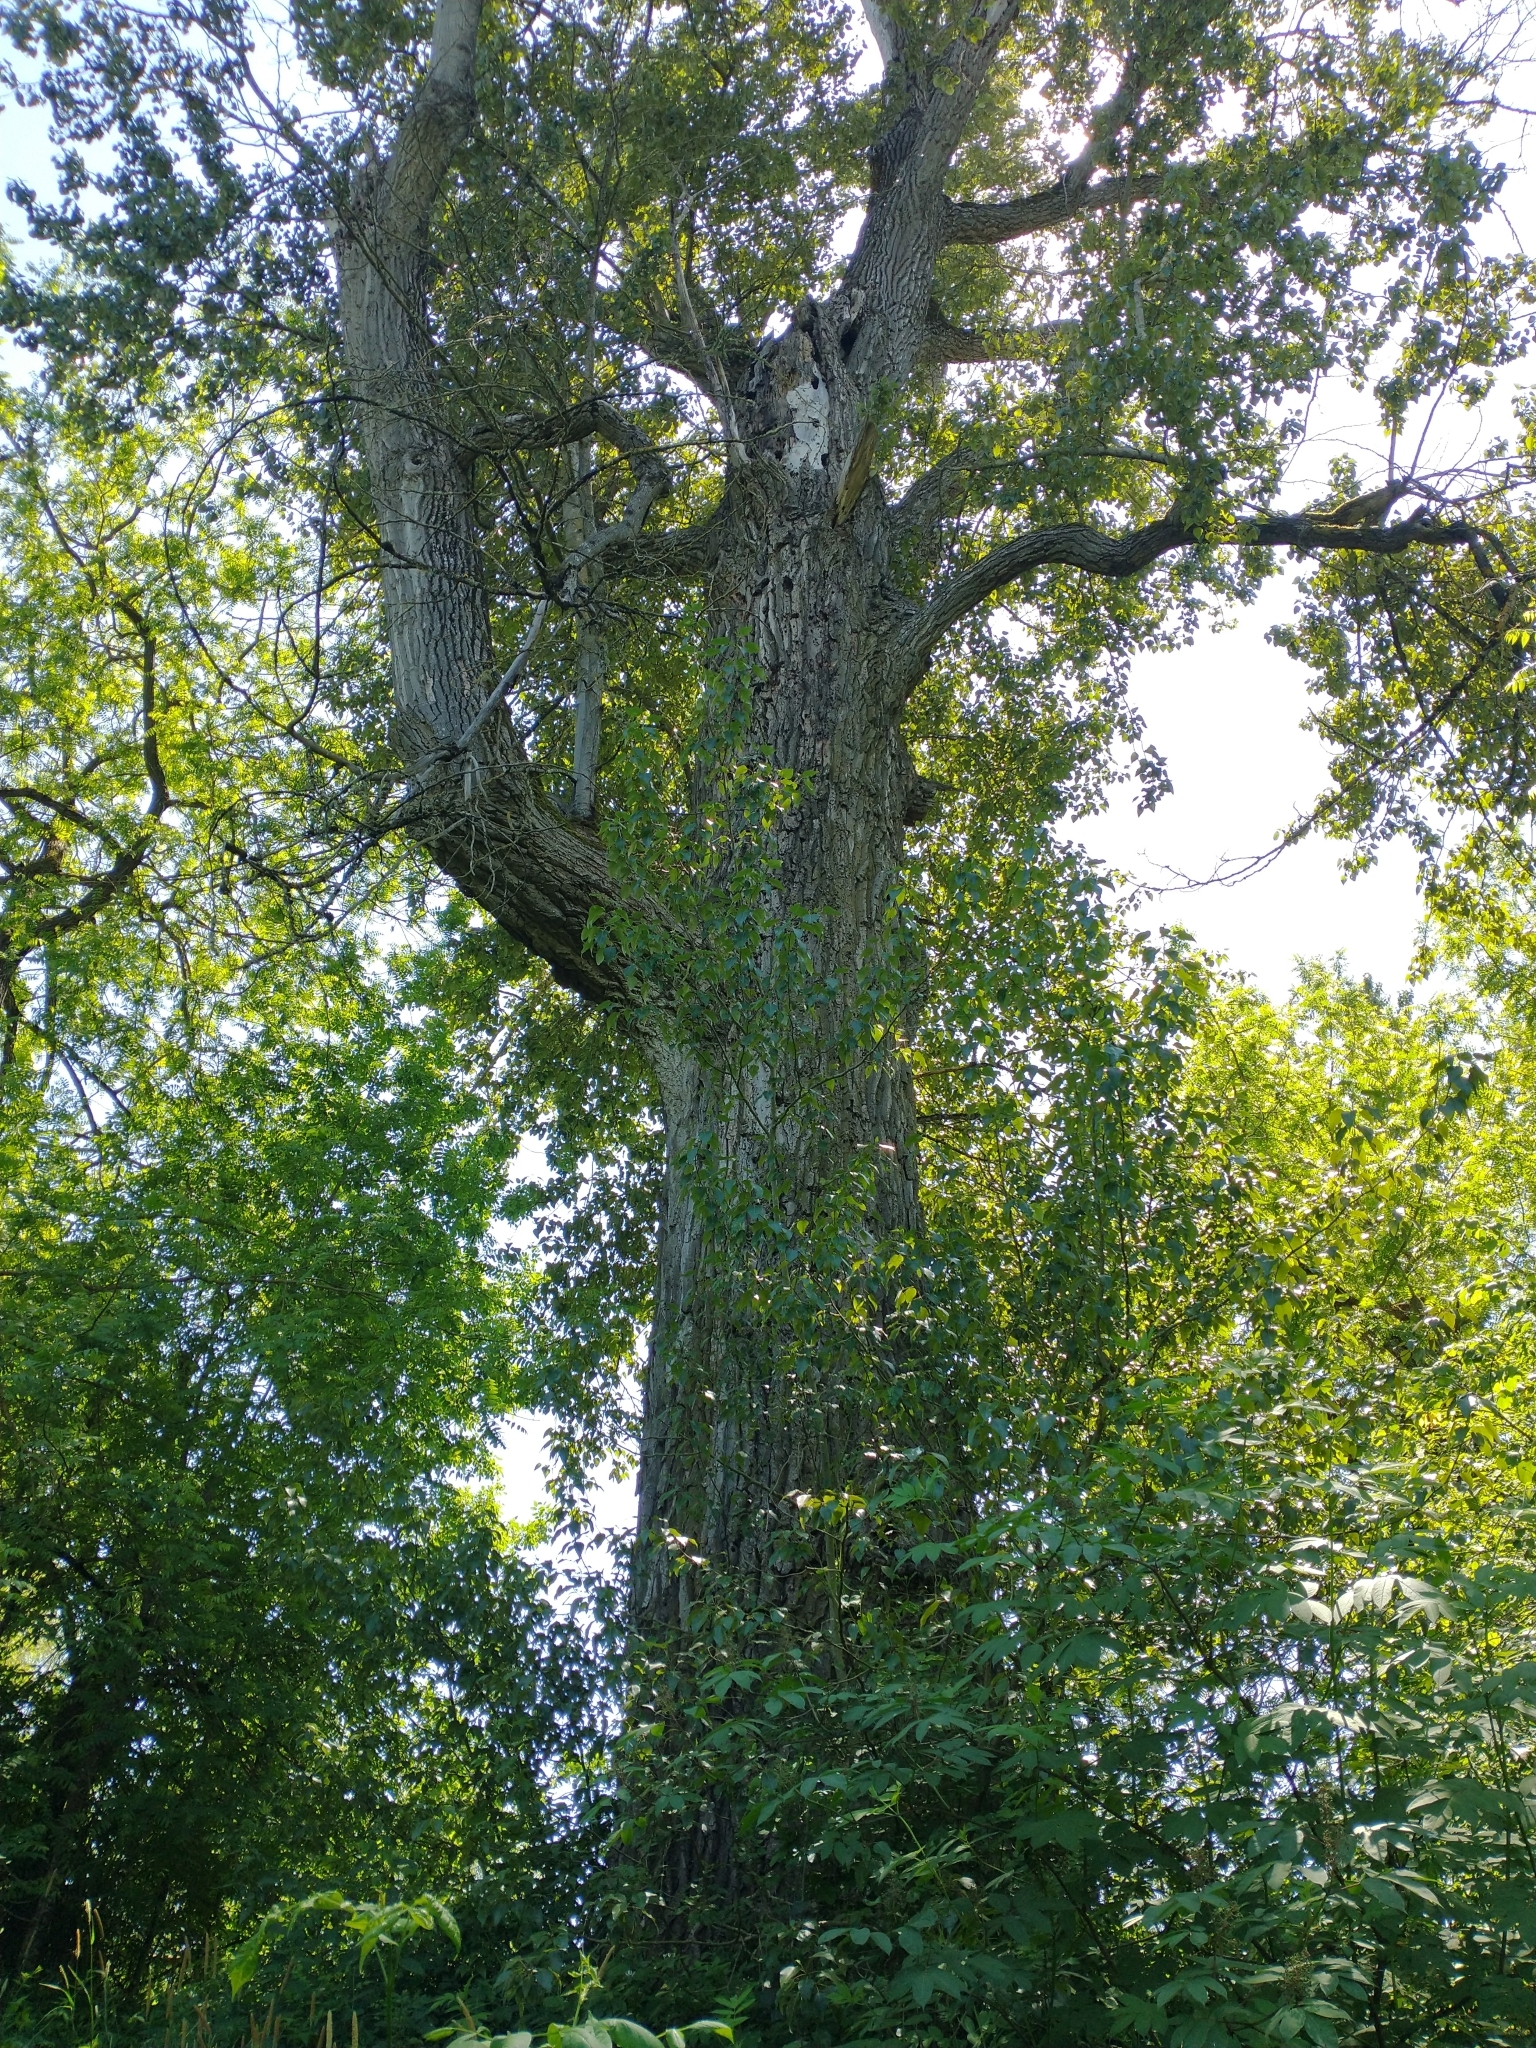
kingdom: Plantae
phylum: Tracheophyta
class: Magnoliopsida
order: Malpighiales
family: Salicaceae
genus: Populus
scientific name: Populus trichocarpa
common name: Black cottonwood
